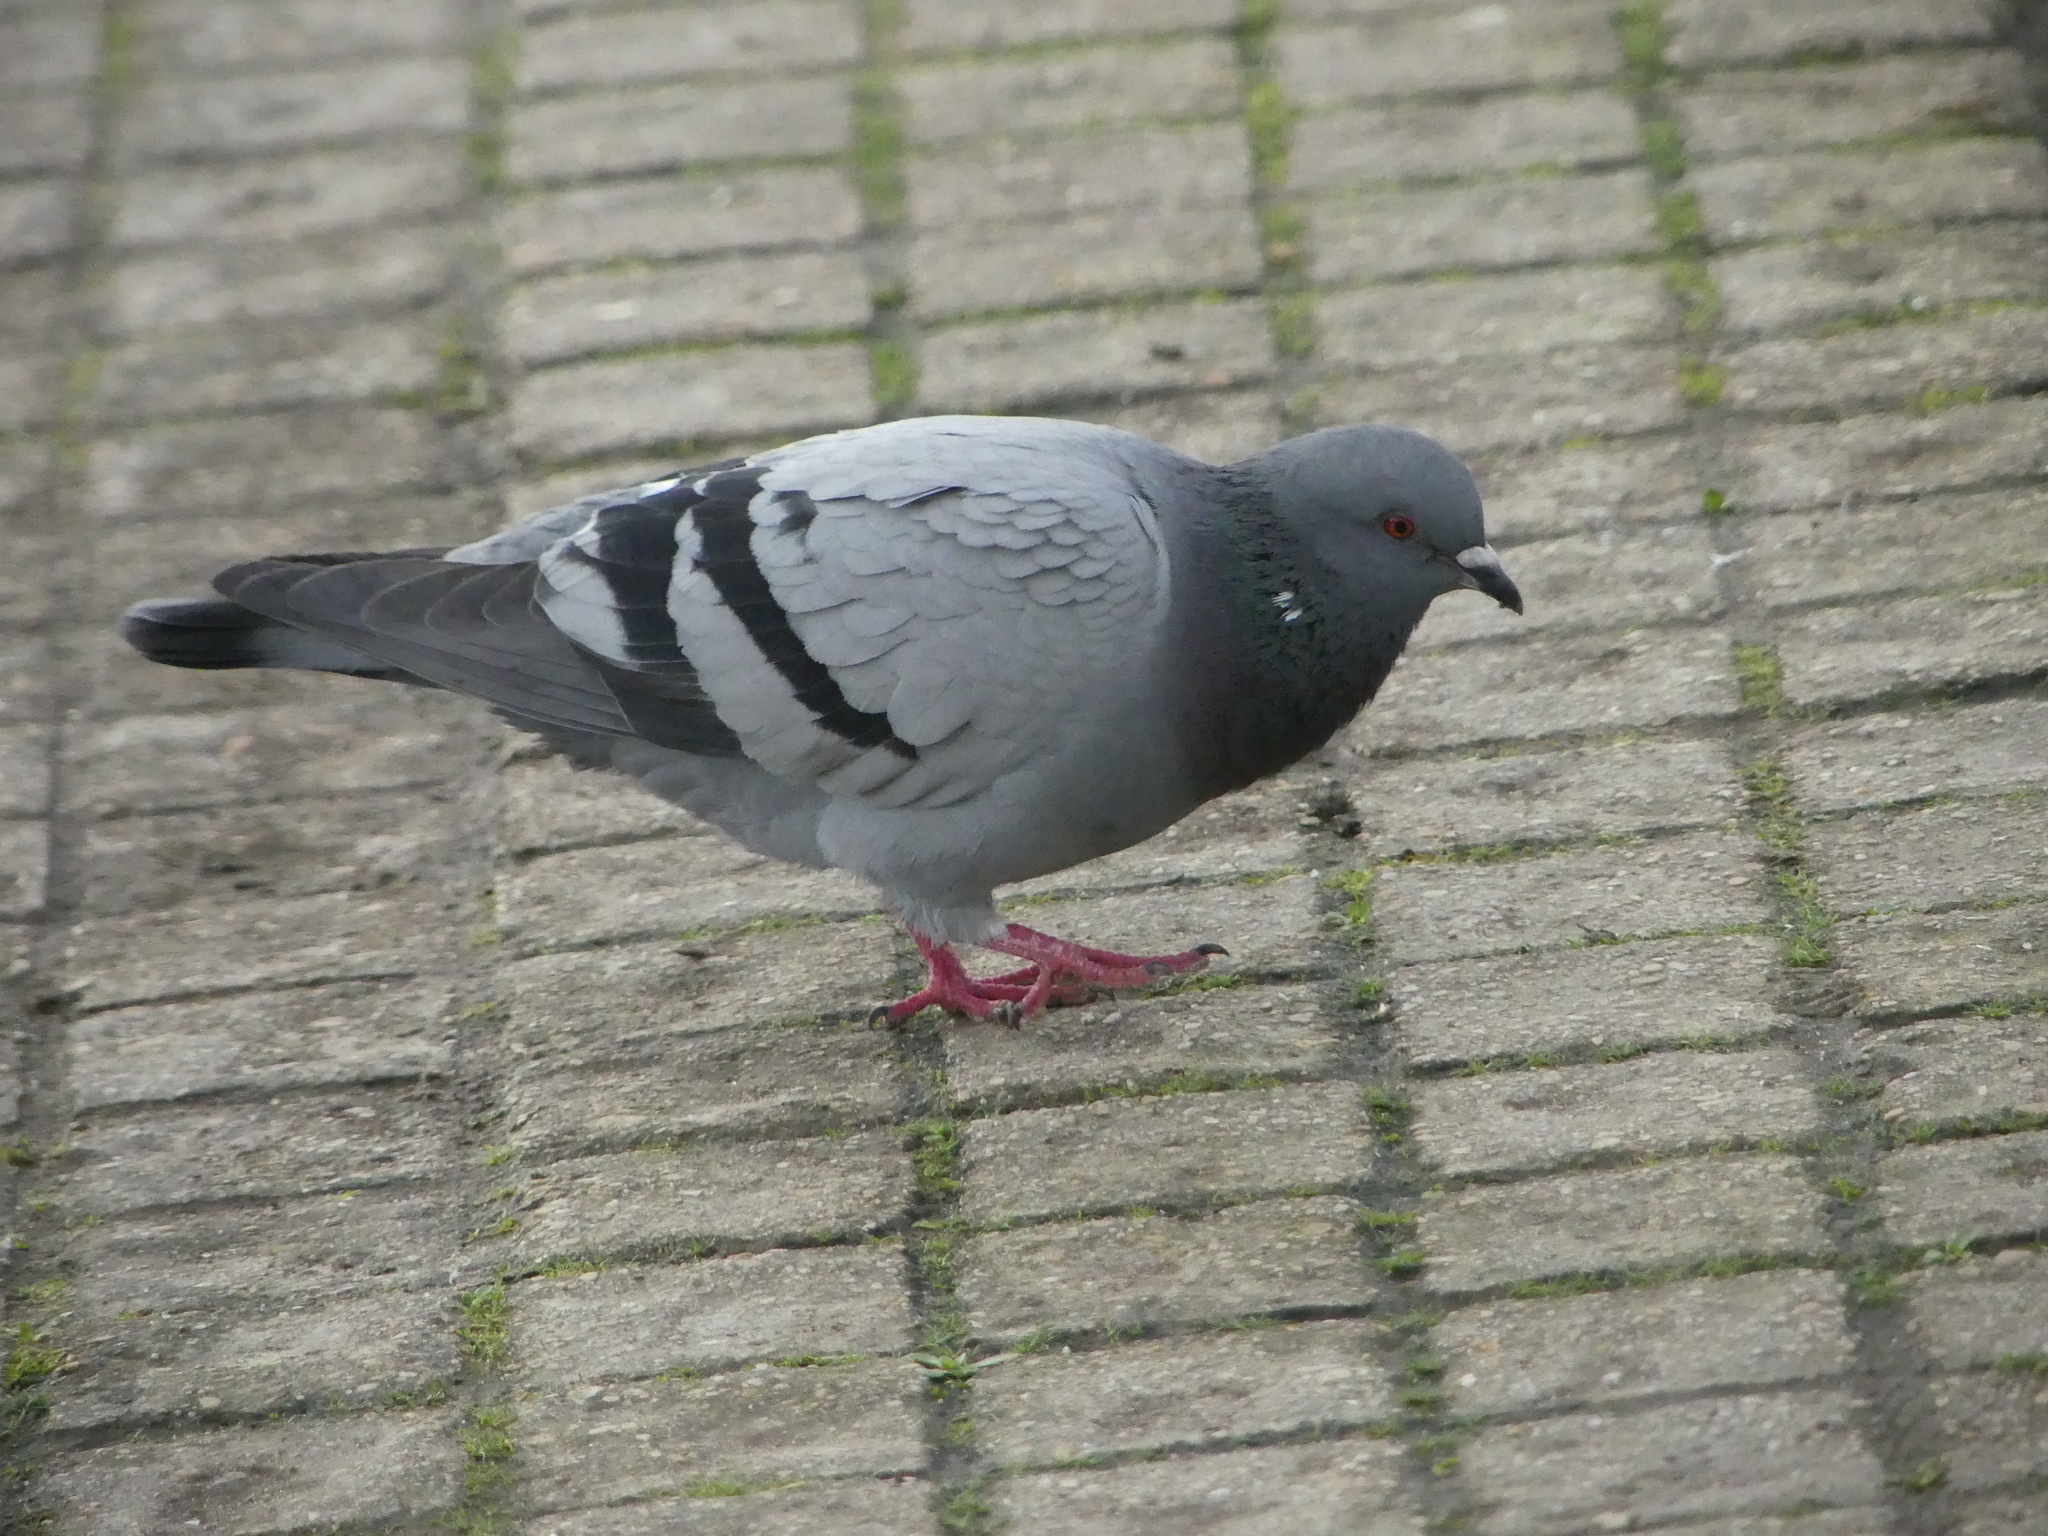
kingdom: Animalia
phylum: Chordata
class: Aves
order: Columbiformes
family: Columbidae
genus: Columba
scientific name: Columba livia
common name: Rock pigeon
